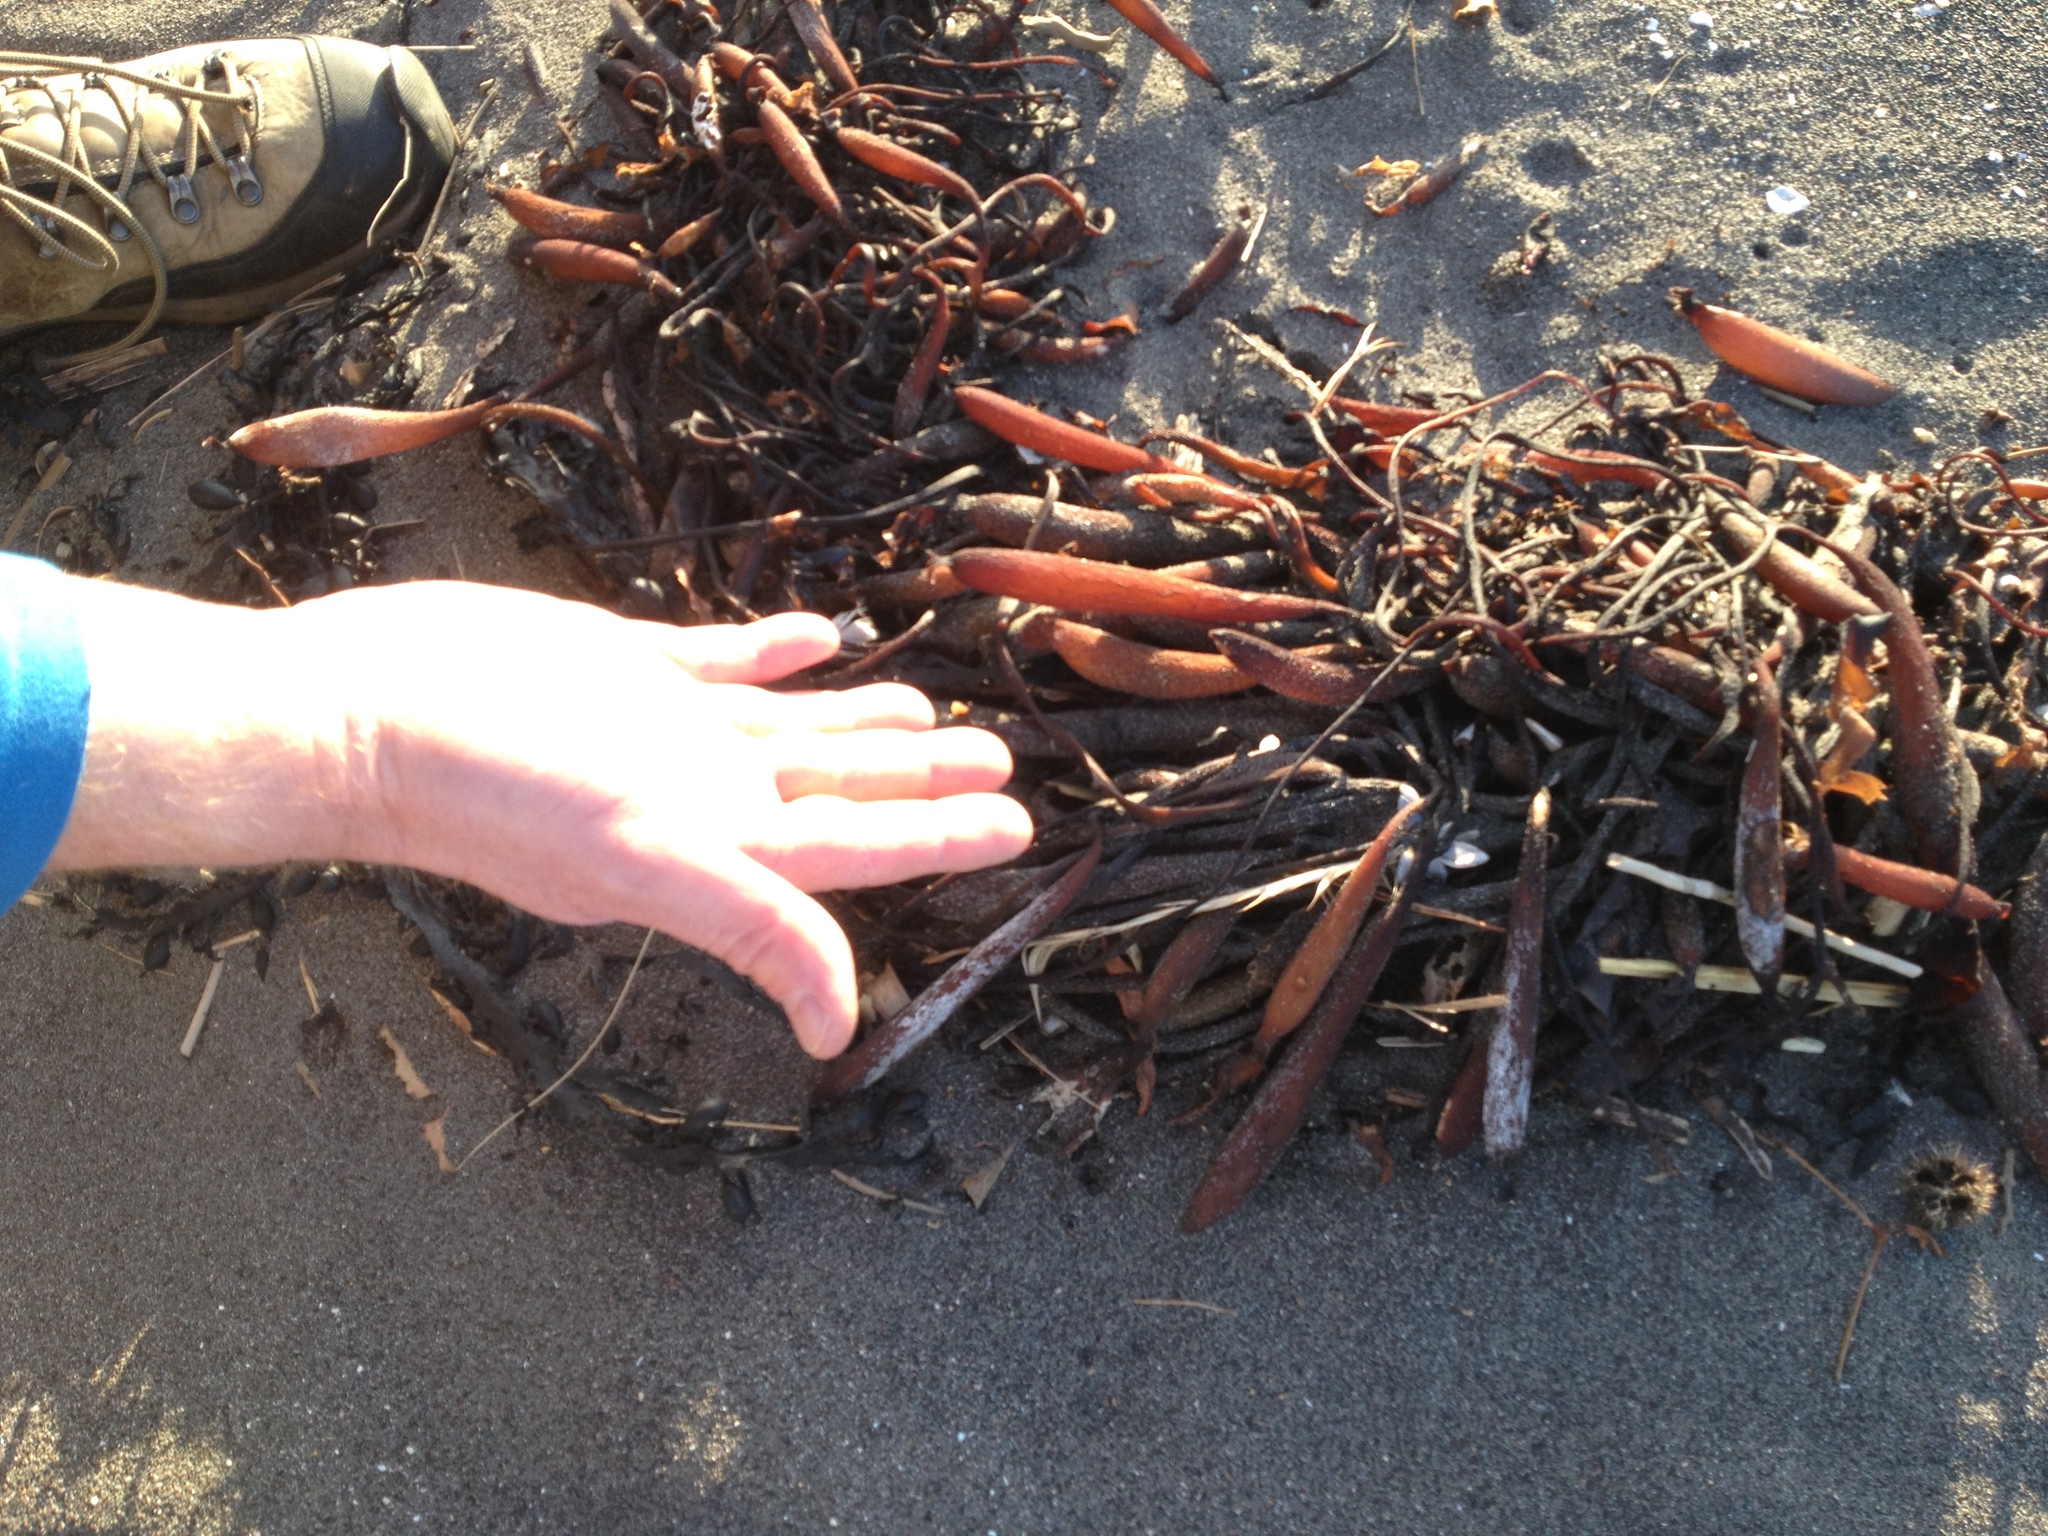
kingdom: Chromista
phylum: Ochrophyta
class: Phaeophyceae
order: Laminariales
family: Laminariaceae
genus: Macrocystis
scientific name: Macrocystis pyrifera
